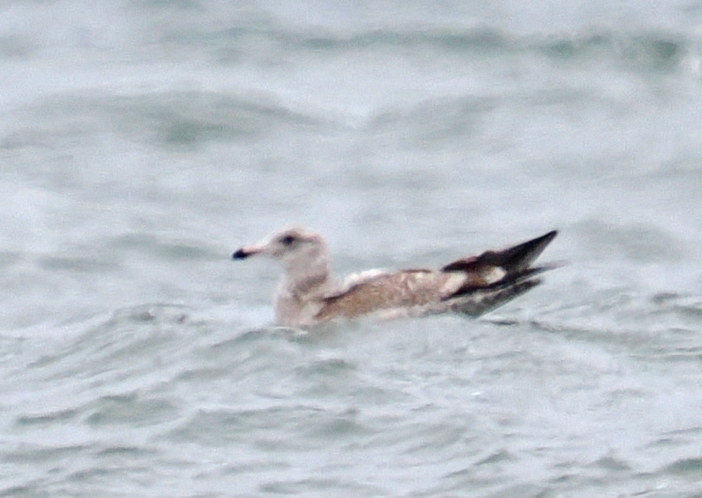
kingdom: Animalia
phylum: Chordata
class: Aves
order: Charadriiformes
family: Laridae
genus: Larus
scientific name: Larus argentatus
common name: Herring gull
